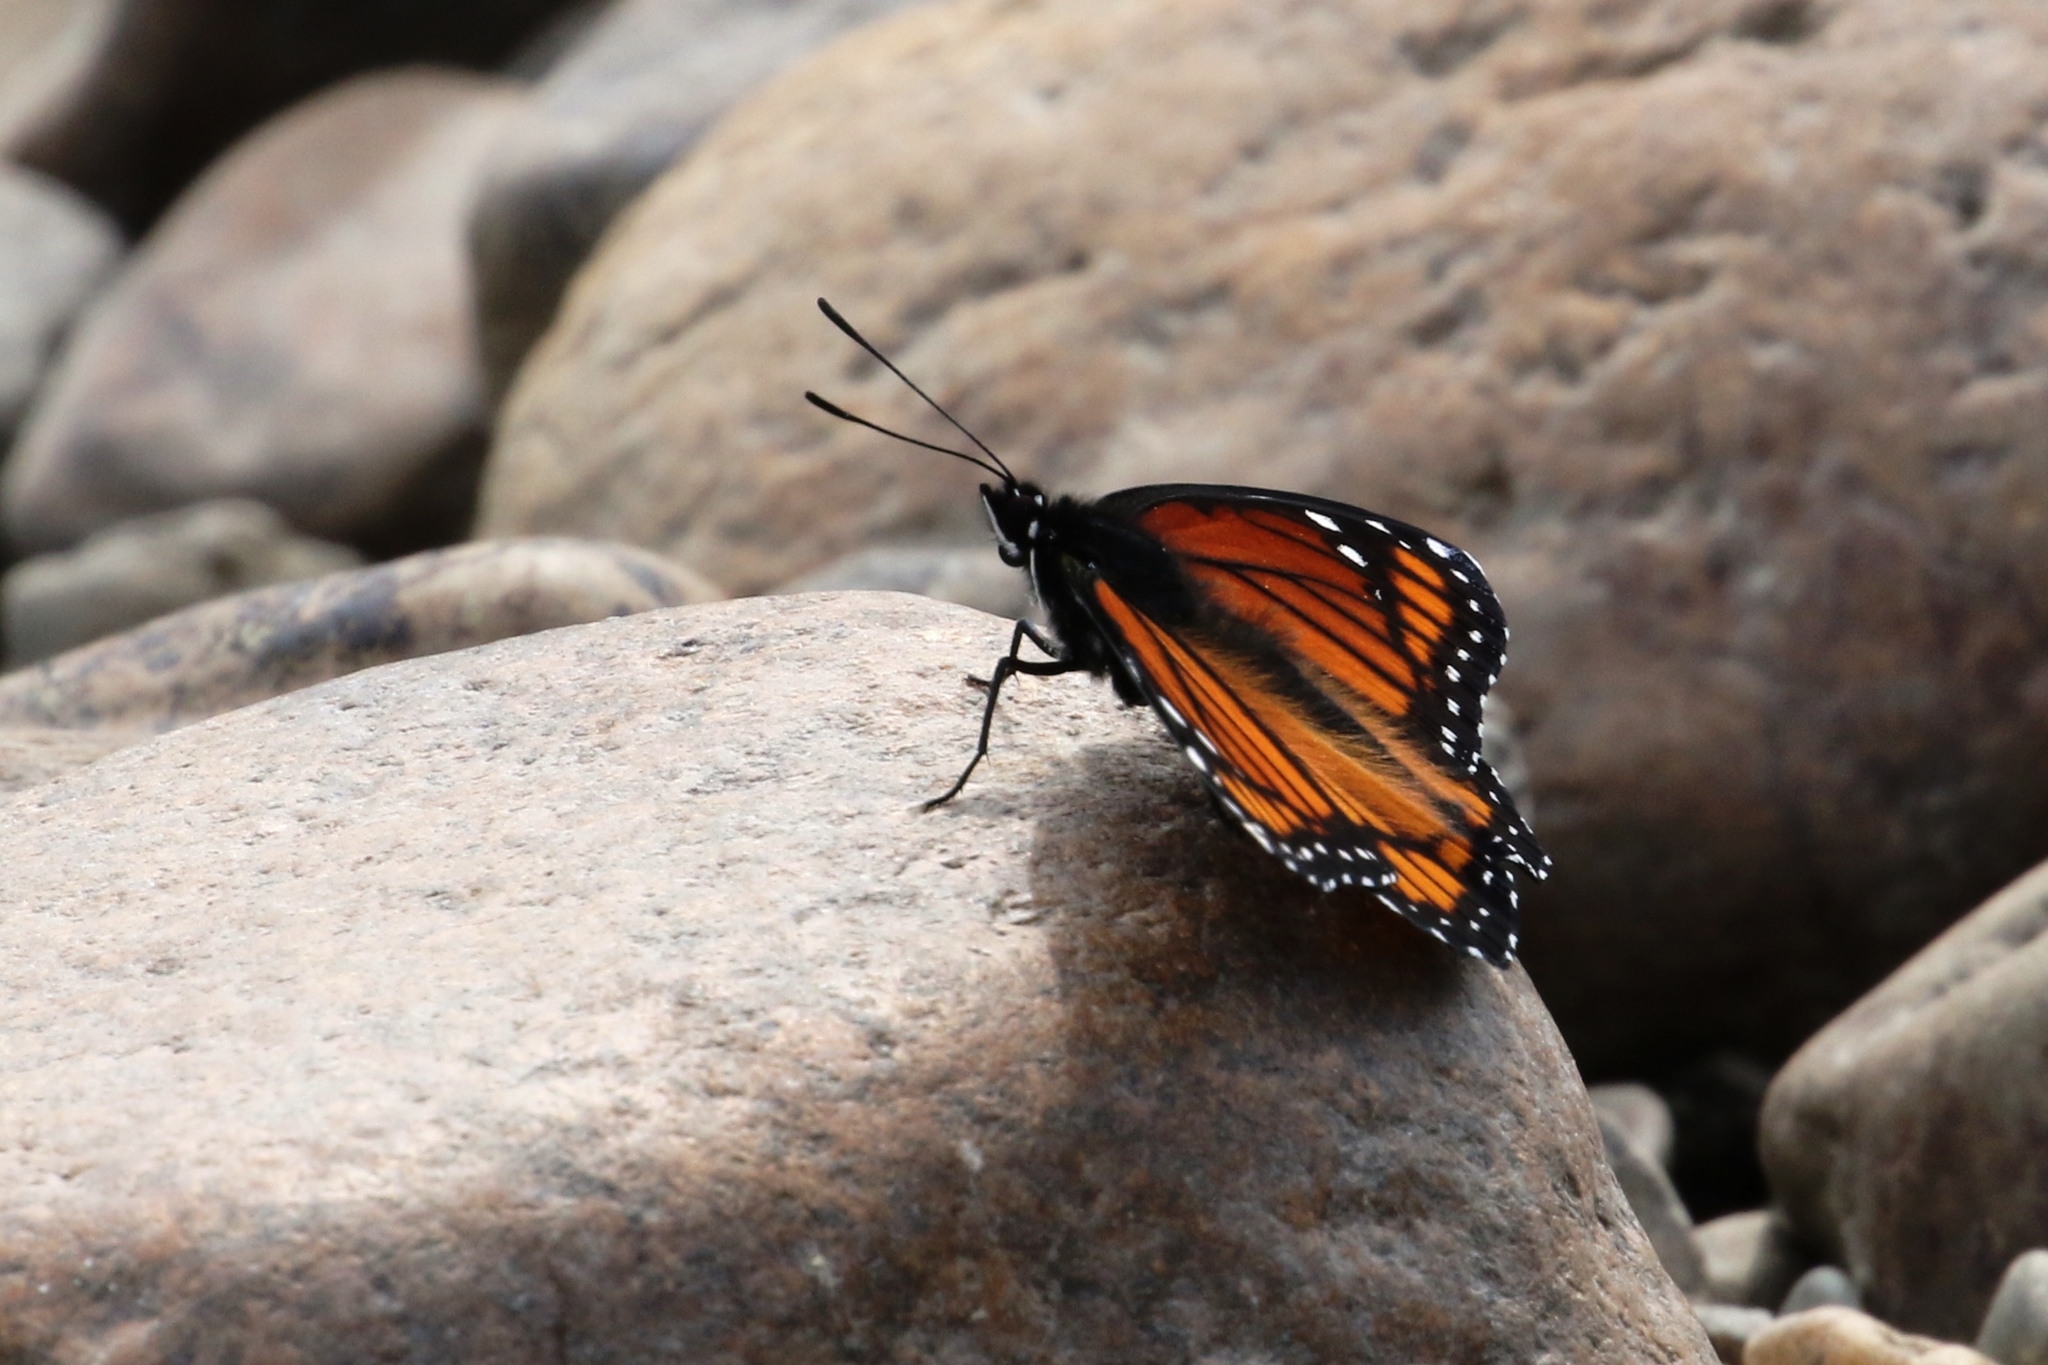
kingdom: Animalia
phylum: Arthropoda
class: Insecta
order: Lepidoptera
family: Nymphalidae
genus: Limenitis
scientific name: Limenitis archippus
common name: Viceroy
